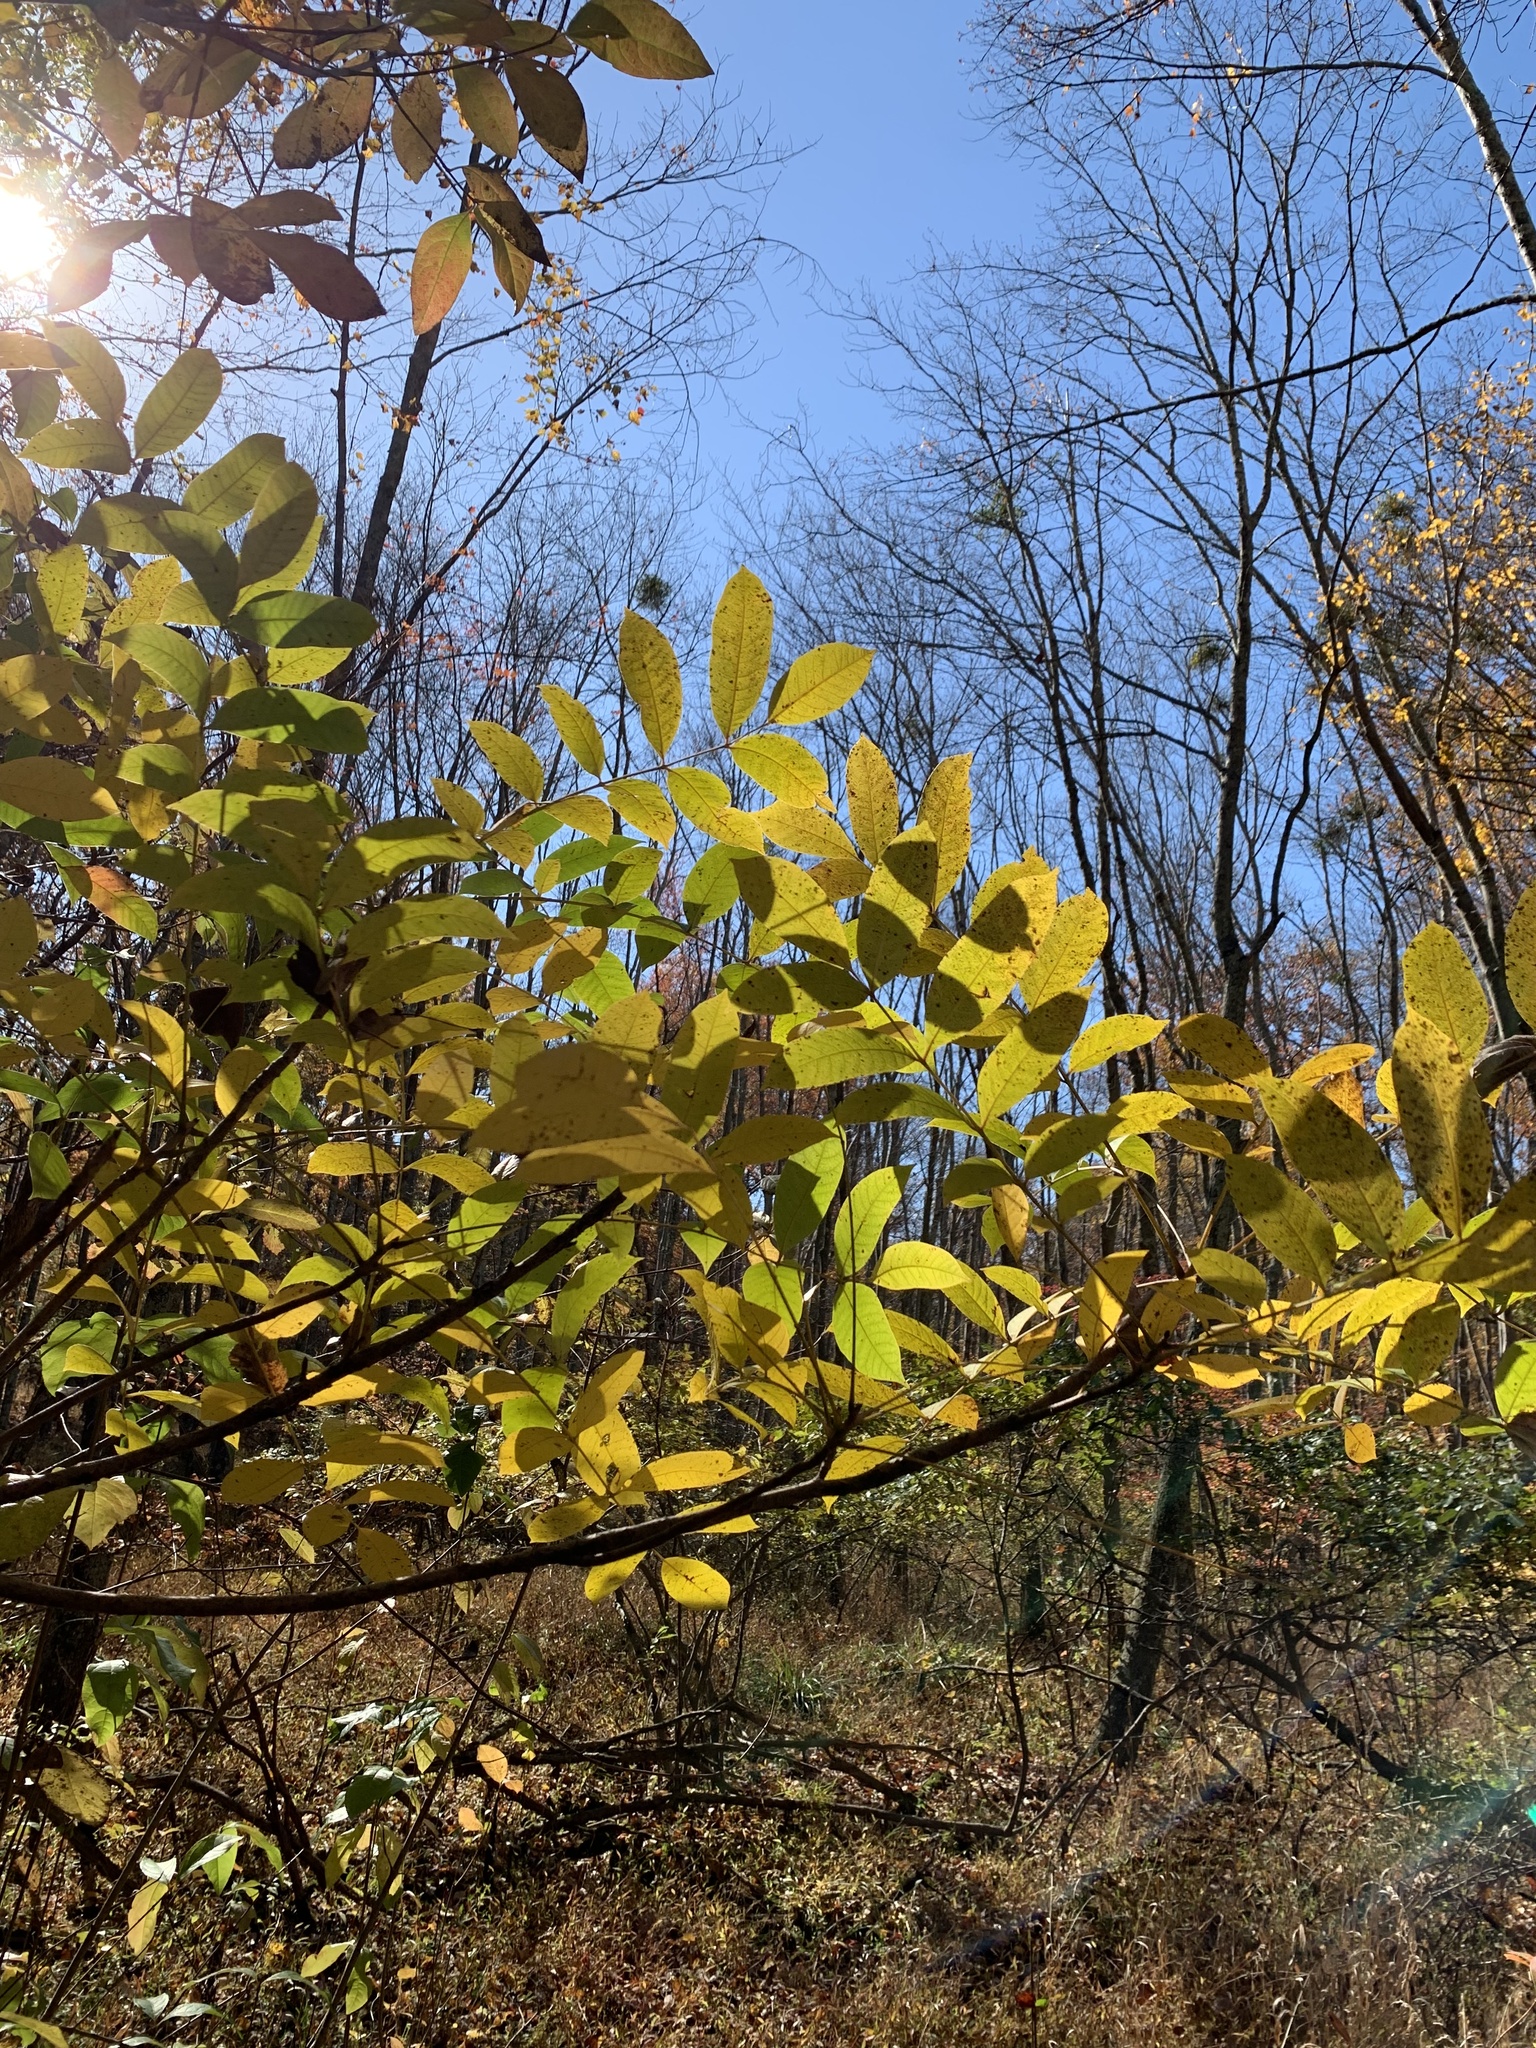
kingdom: Plantae
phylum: Tracheophyta
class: Magnoliopsida
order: Sapindales
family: Anacardiaceae
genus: Toxicodendron
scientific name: Toxicodendron vernix
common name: Poison sumac
